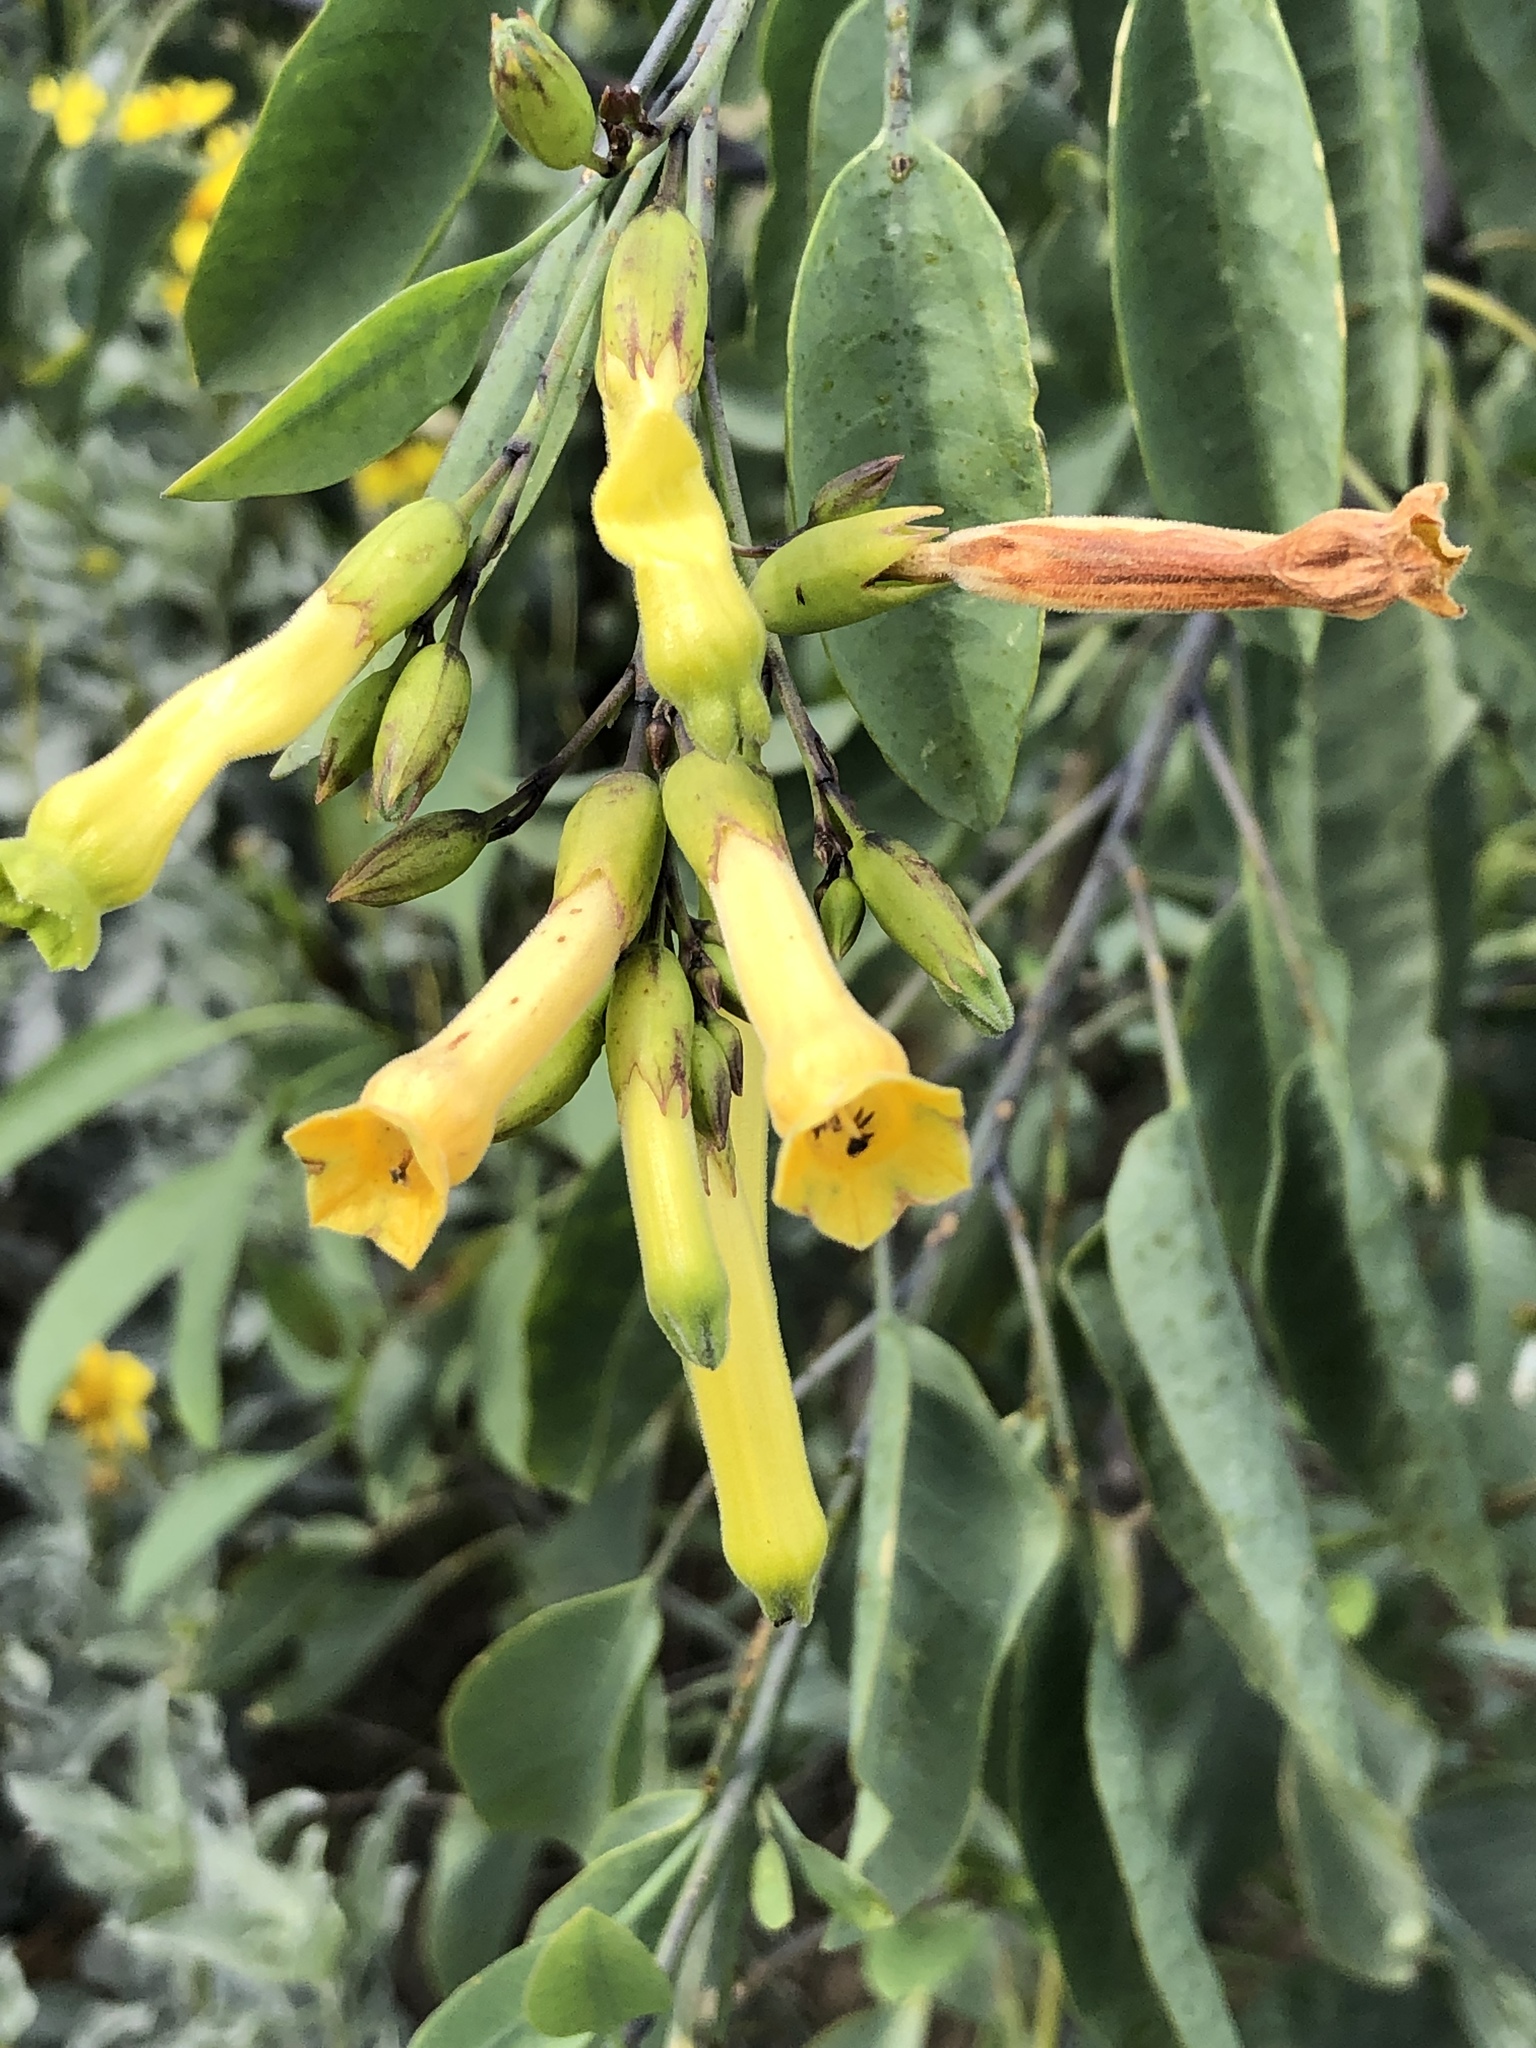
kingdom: Plantae
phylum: Tracheophyta
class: Magnoliopsida
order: Solanales
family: Solanaceae
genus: Nicotiana
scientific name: Nicotiana glauca
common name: Tree tobacco
